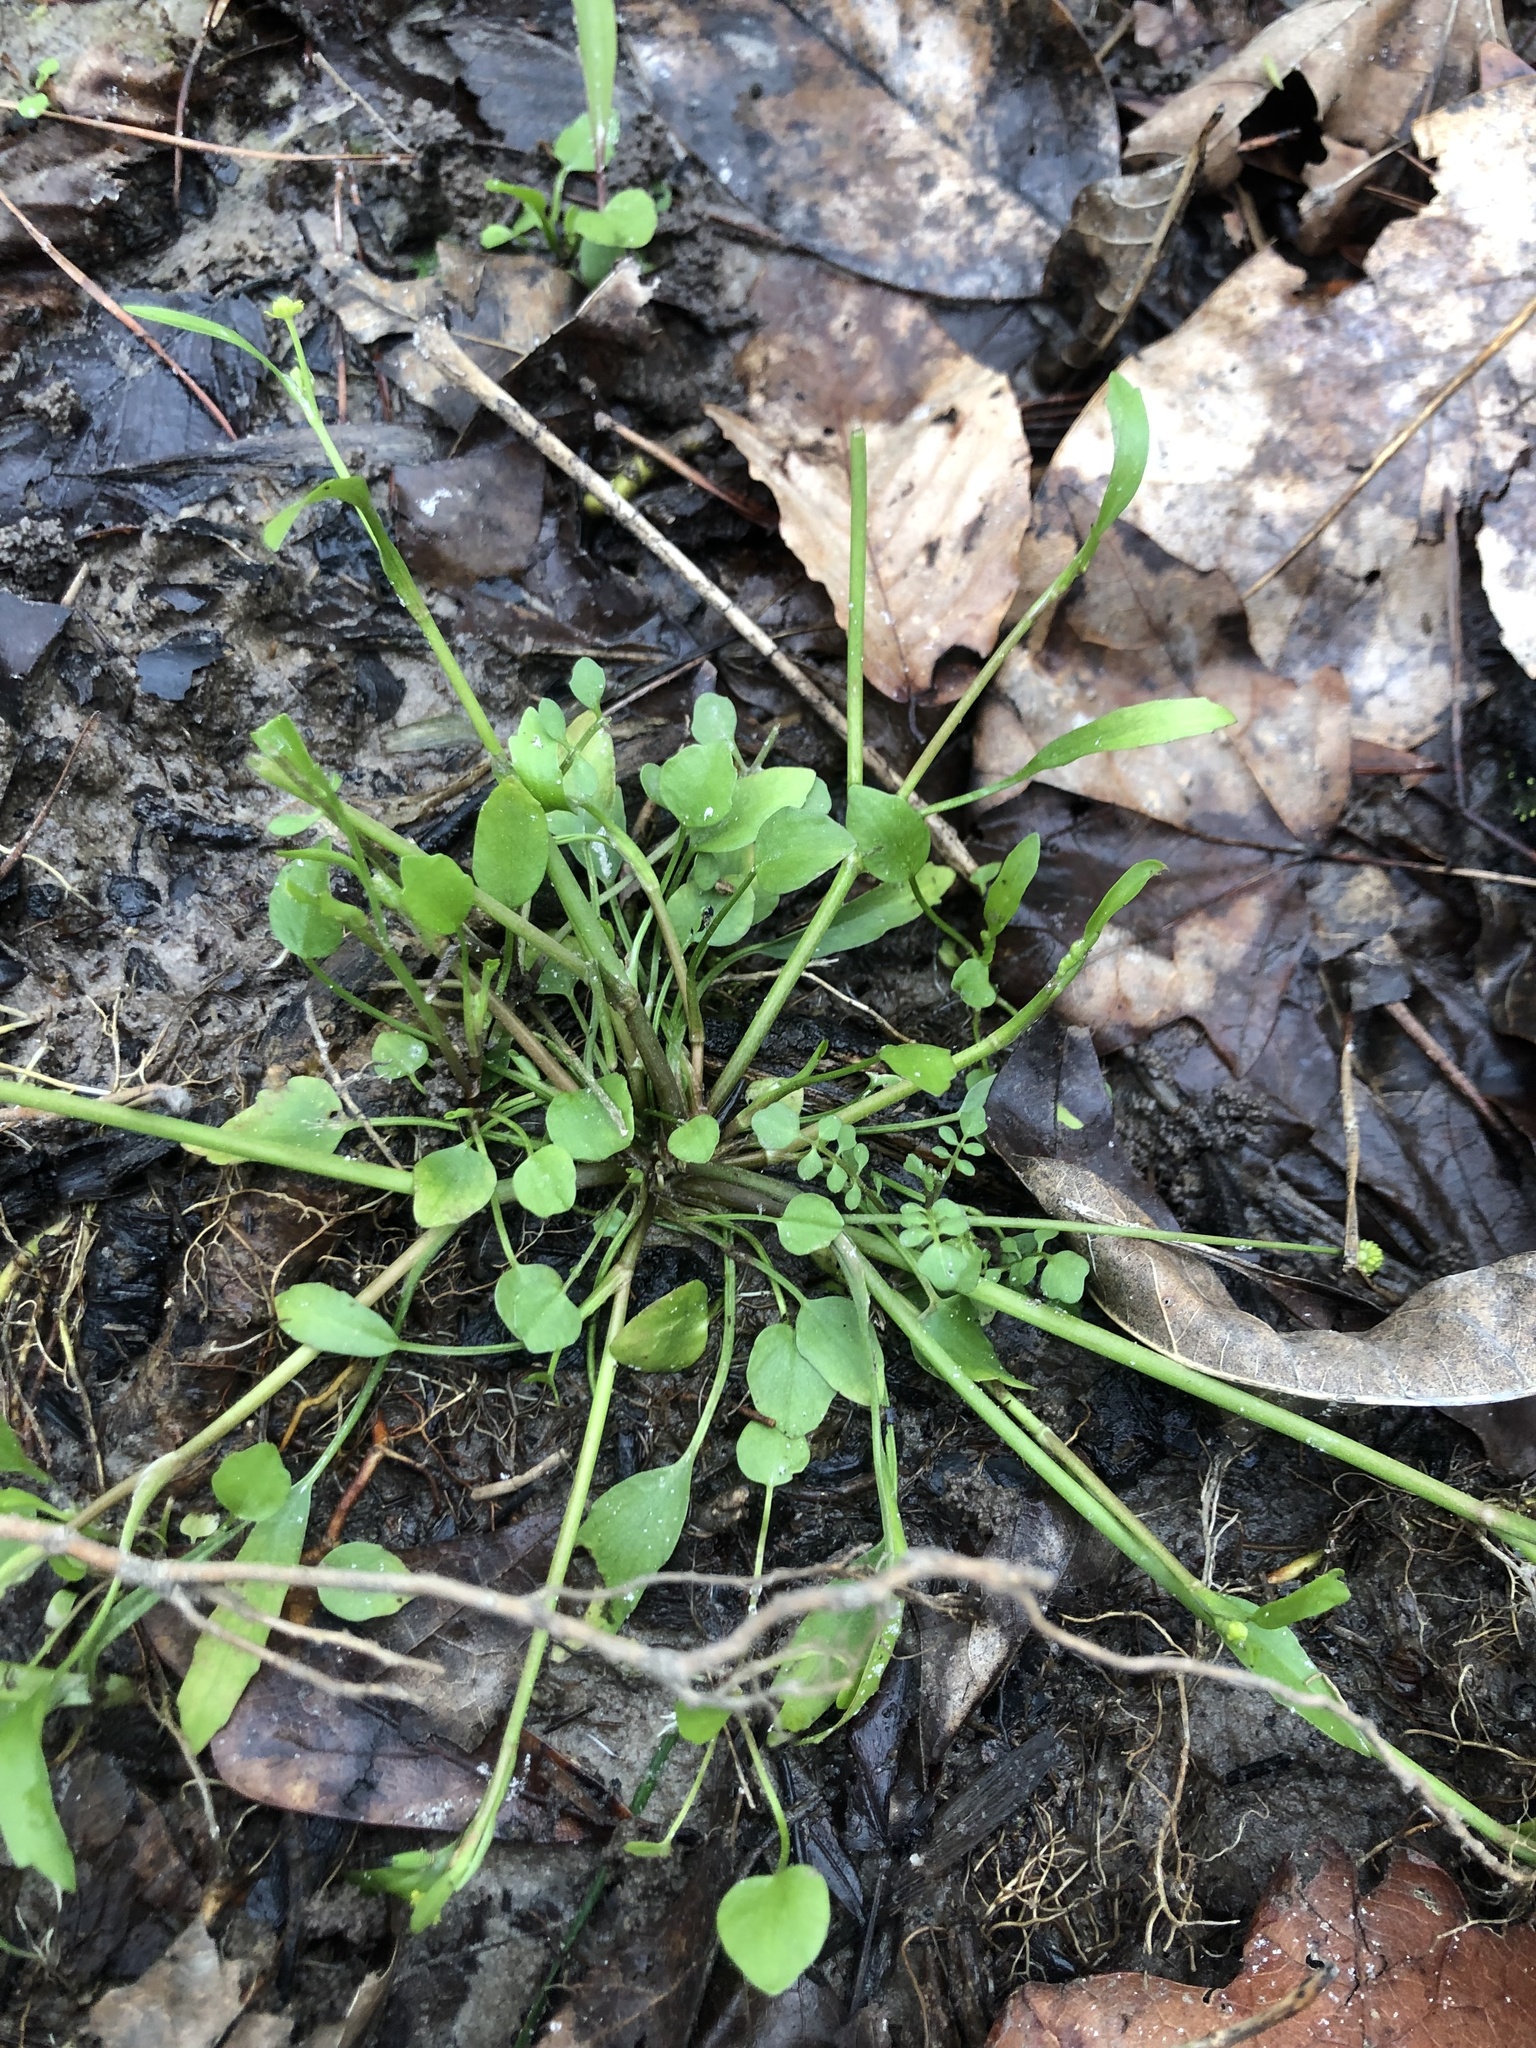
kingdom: Plantae
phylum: Tracheophyta
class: Magnoliopsida
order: Ranunculales
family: Ranunculaceae
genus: Ranunculus
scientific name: Ranunculus pusillus
